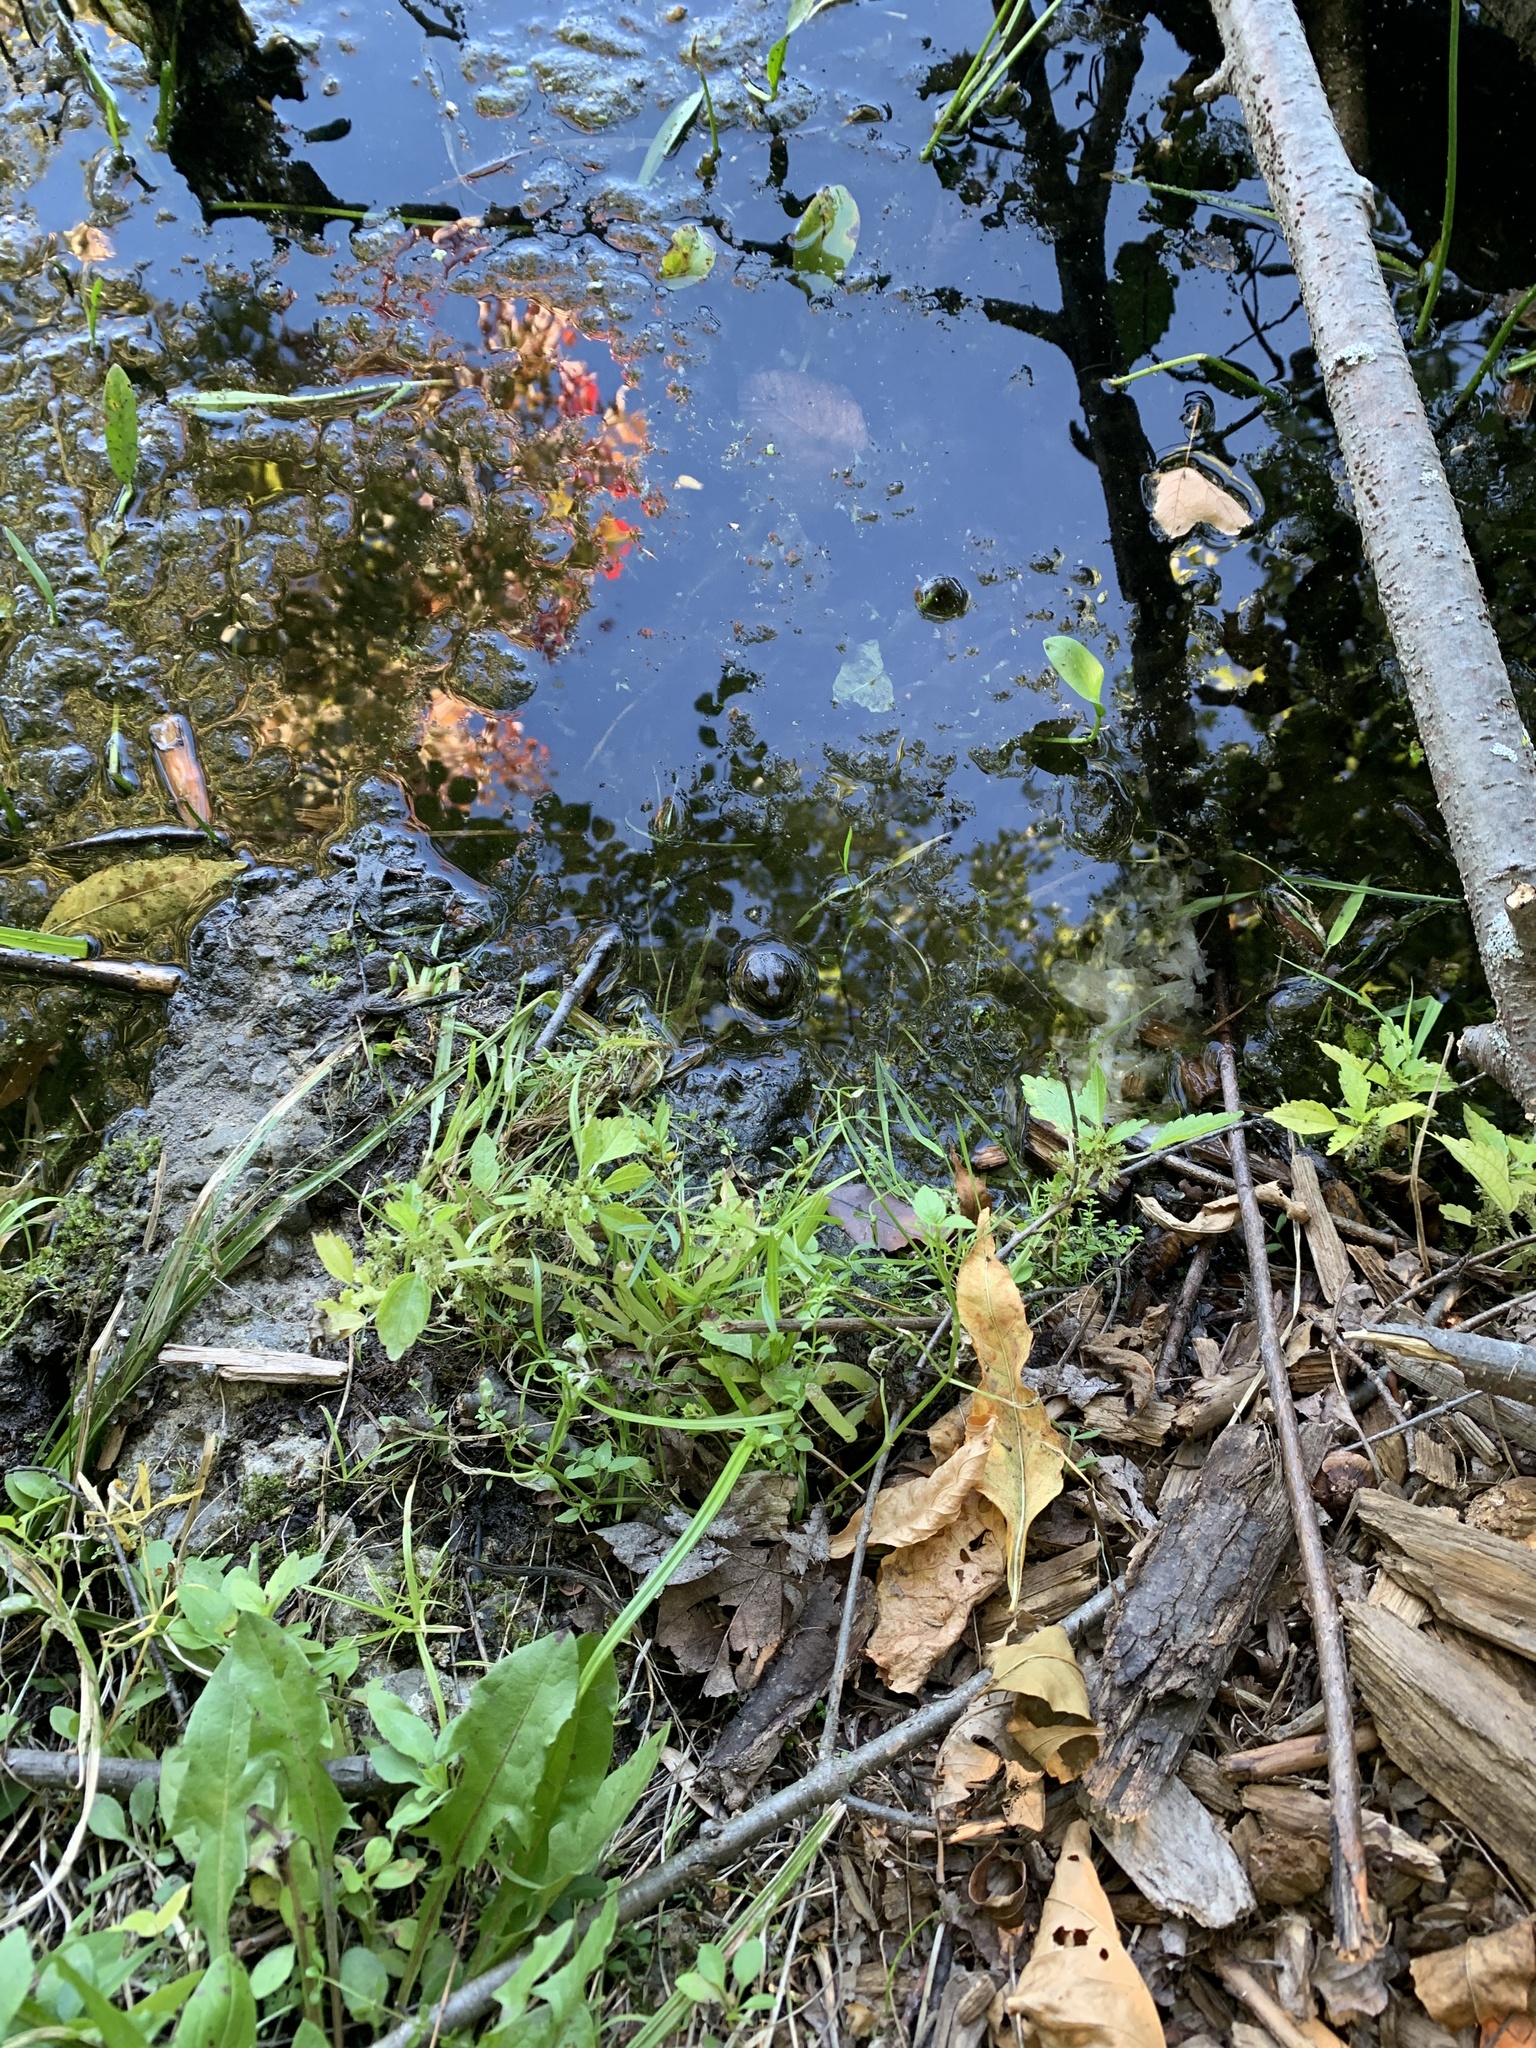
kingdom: Animalia
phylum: Chordata
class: Amphibia
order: Anura
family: Ranidae
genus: Lithobates
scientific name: Lithobates clamitans
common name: Green frog
